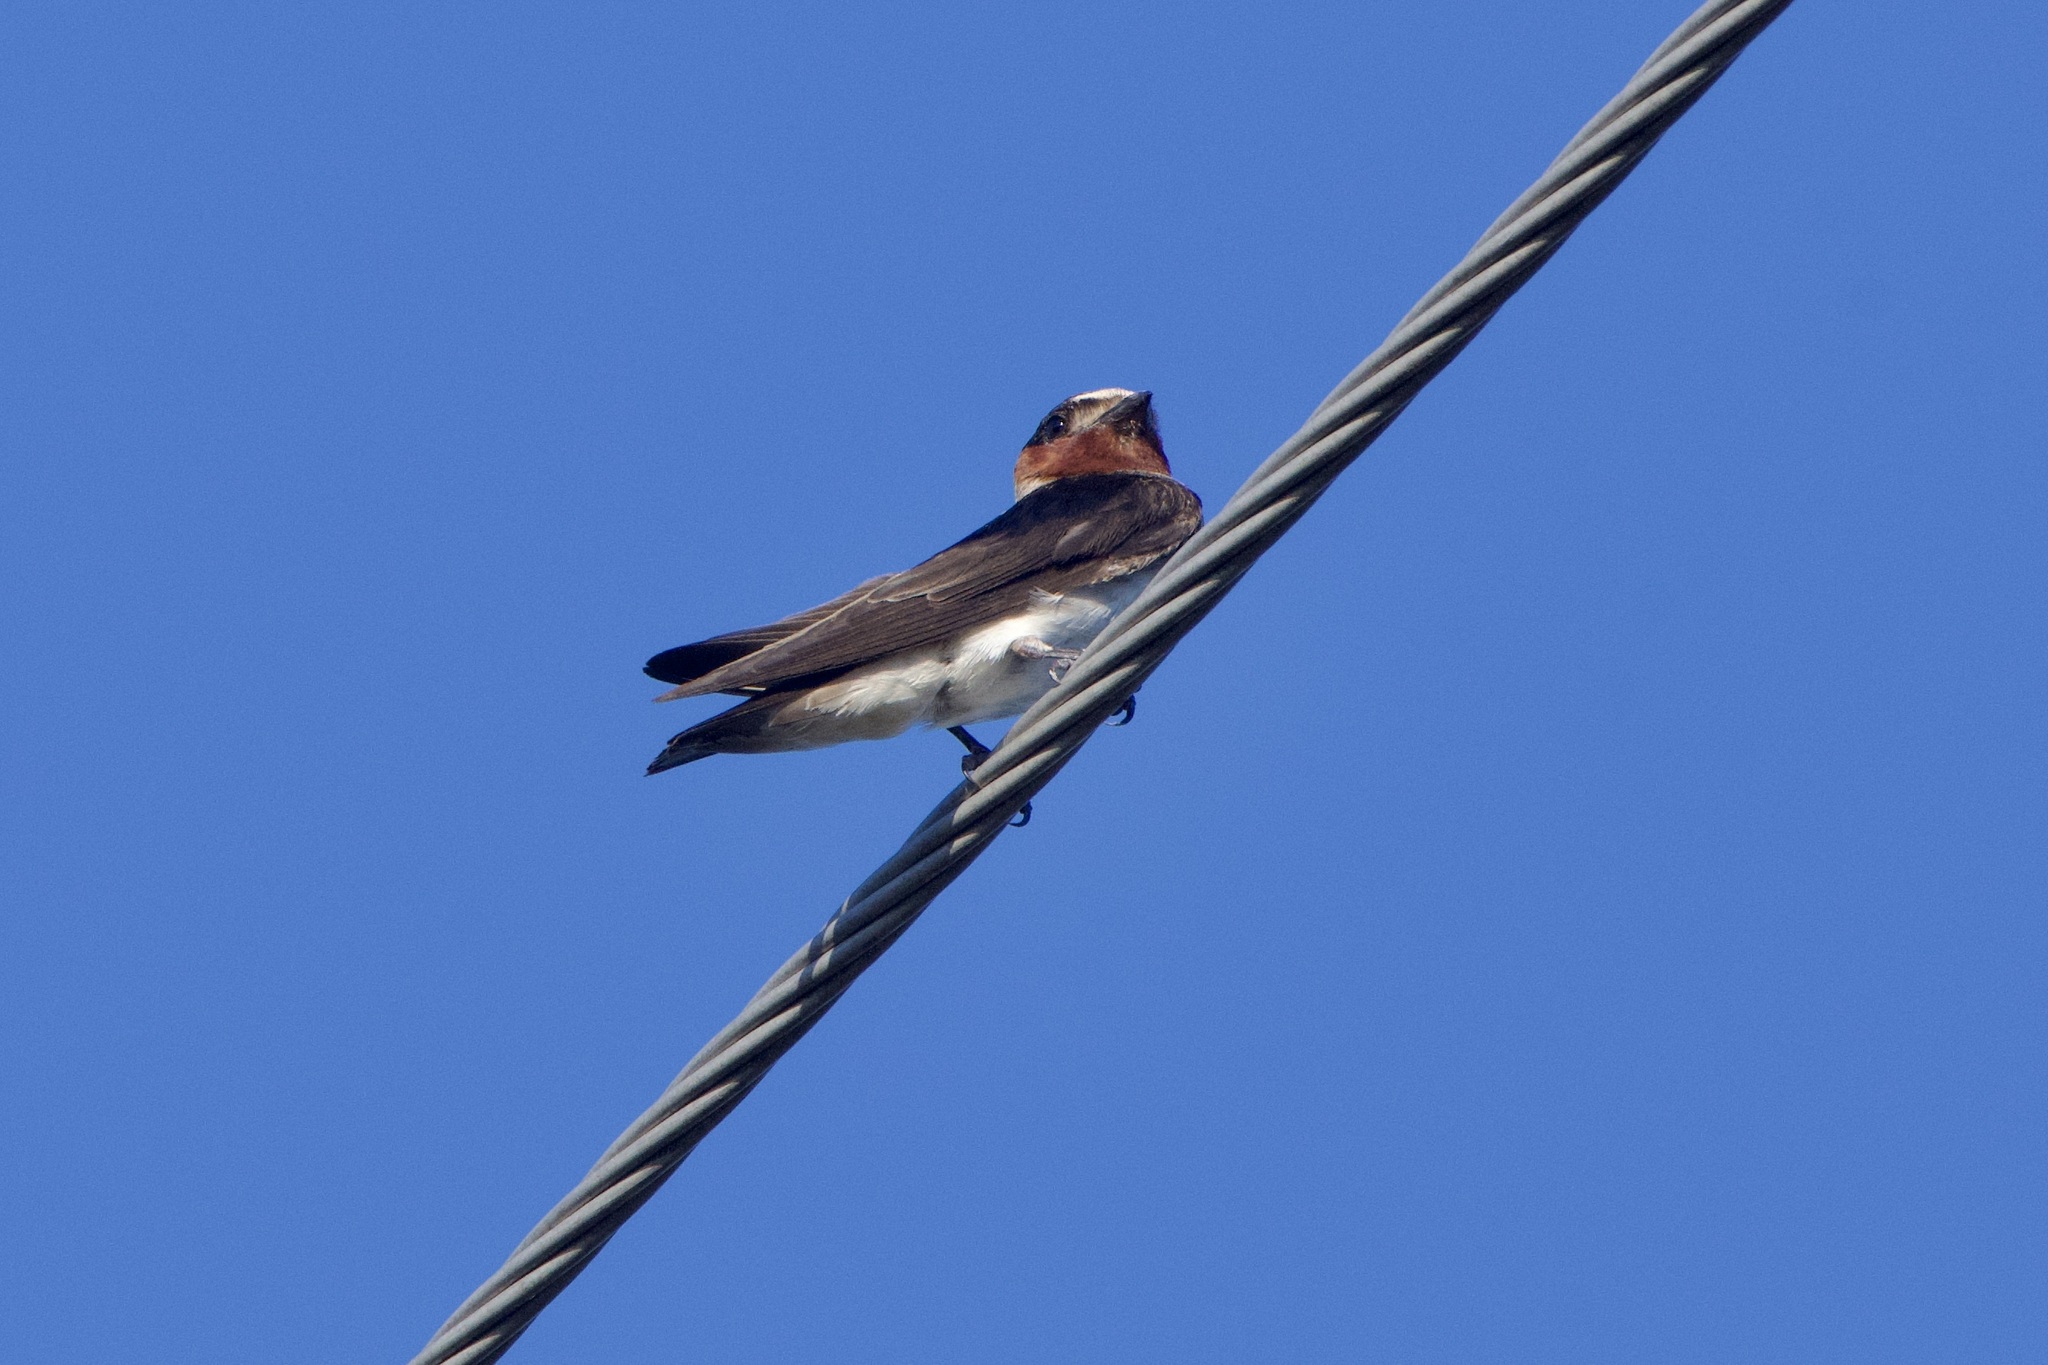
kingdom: Animalia
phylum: Chordata
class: Aves
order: Passeriformes
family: Hirundinidae
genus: Petrochelidon
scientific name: Petrochelidon pyrrhonota
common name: American cliff swallow
